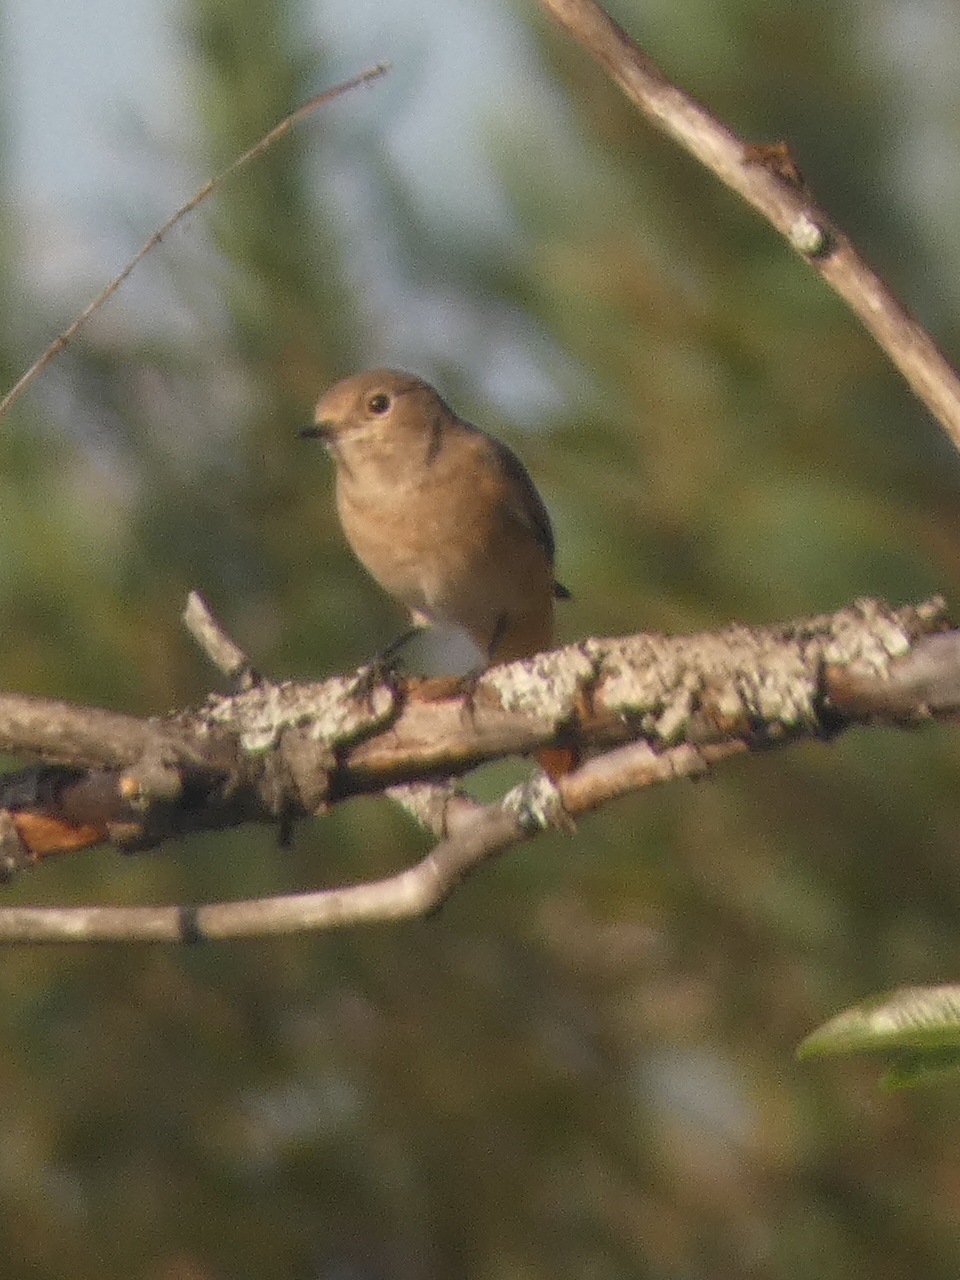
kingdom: Animalia
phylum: Chordata
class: Aves
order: Passeriformes
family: Muscicapidae
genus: Phoenicurus
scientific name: Phoenicurus phoenicurus
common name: Common redstart
